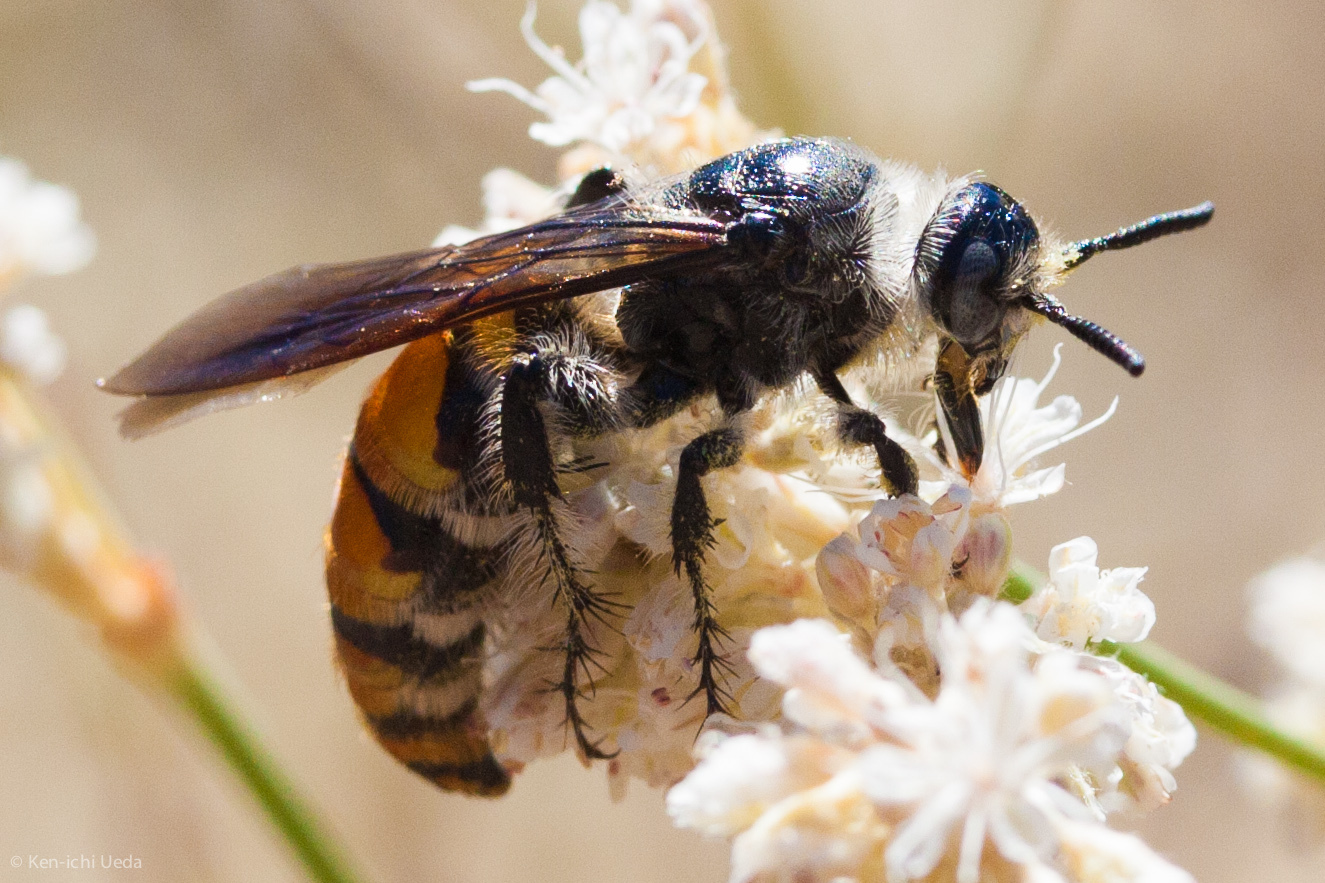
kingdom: Animalia
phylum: Arthropoda
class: Insecta
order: Hymenoptera
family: Scoliidae
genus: Dielis
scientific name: Dielis tolteca
